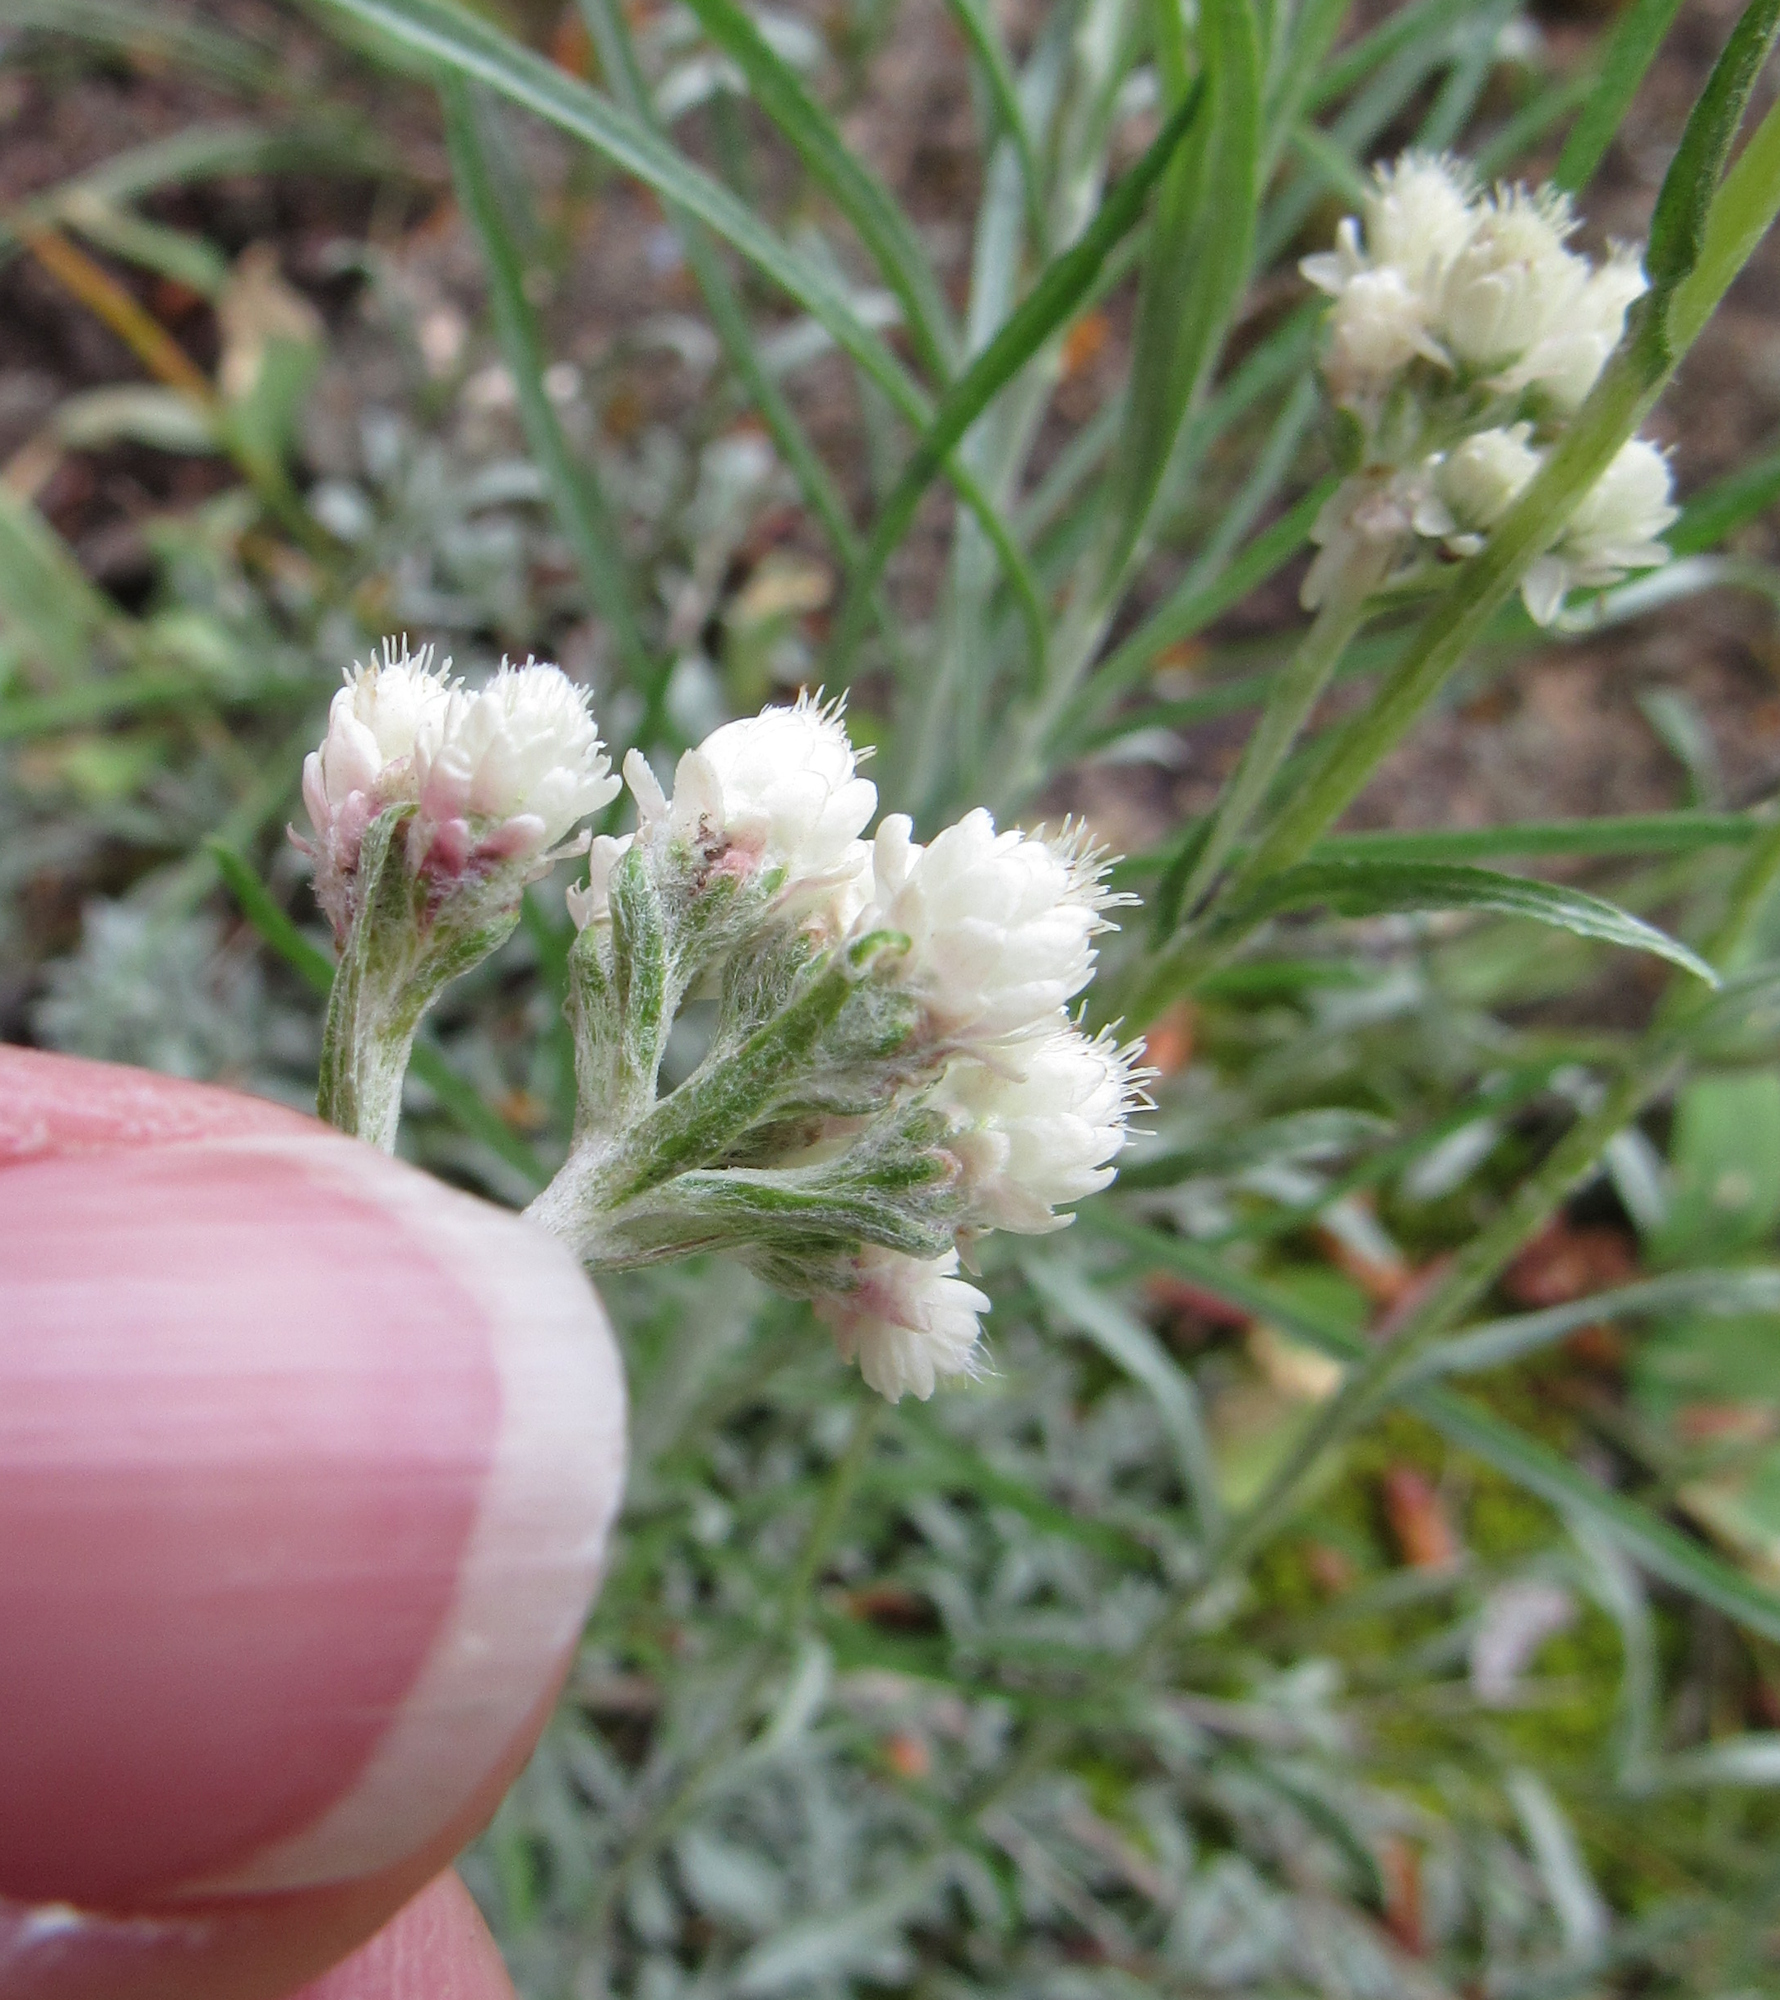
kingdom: Plantae
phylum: Tracheophyta
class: Magnoliopsida
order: Asterales
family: Asteraceae
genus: Antennaria
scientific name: Antennaria rosea
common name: Rosy pussytoes
